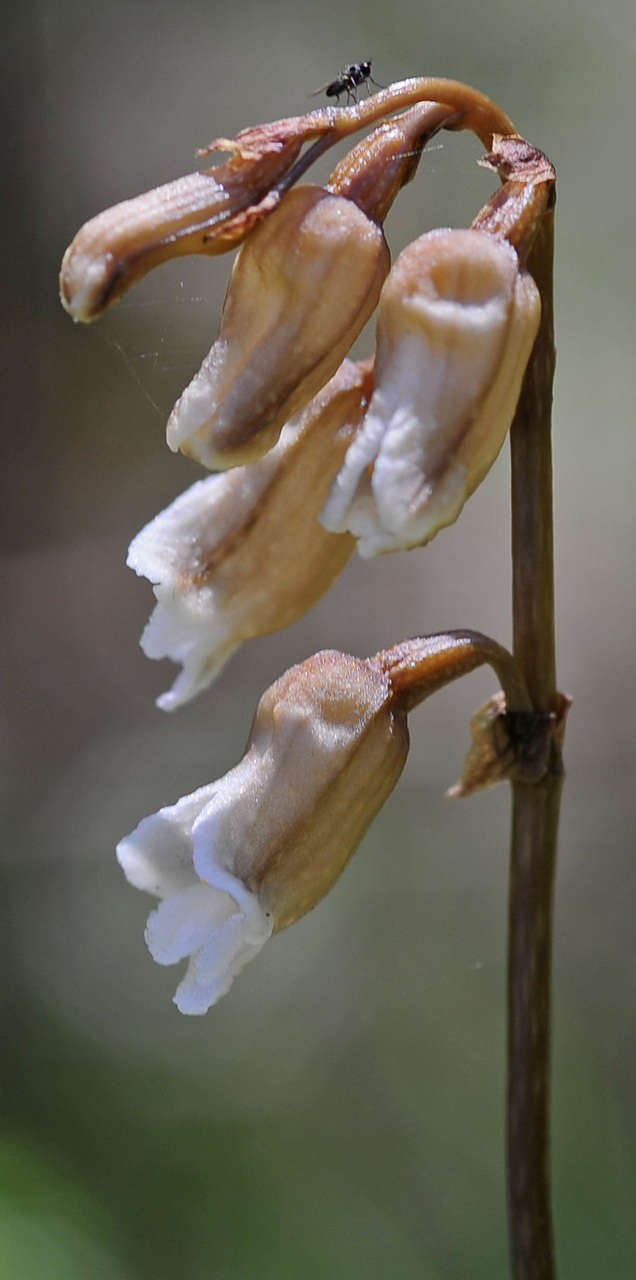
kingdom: Plantae
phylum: Tracheophyta
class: Liliopsida
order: Asparagales
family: Orchidaceae
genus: Gastrodia
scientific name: Gastrodia sesamoides
